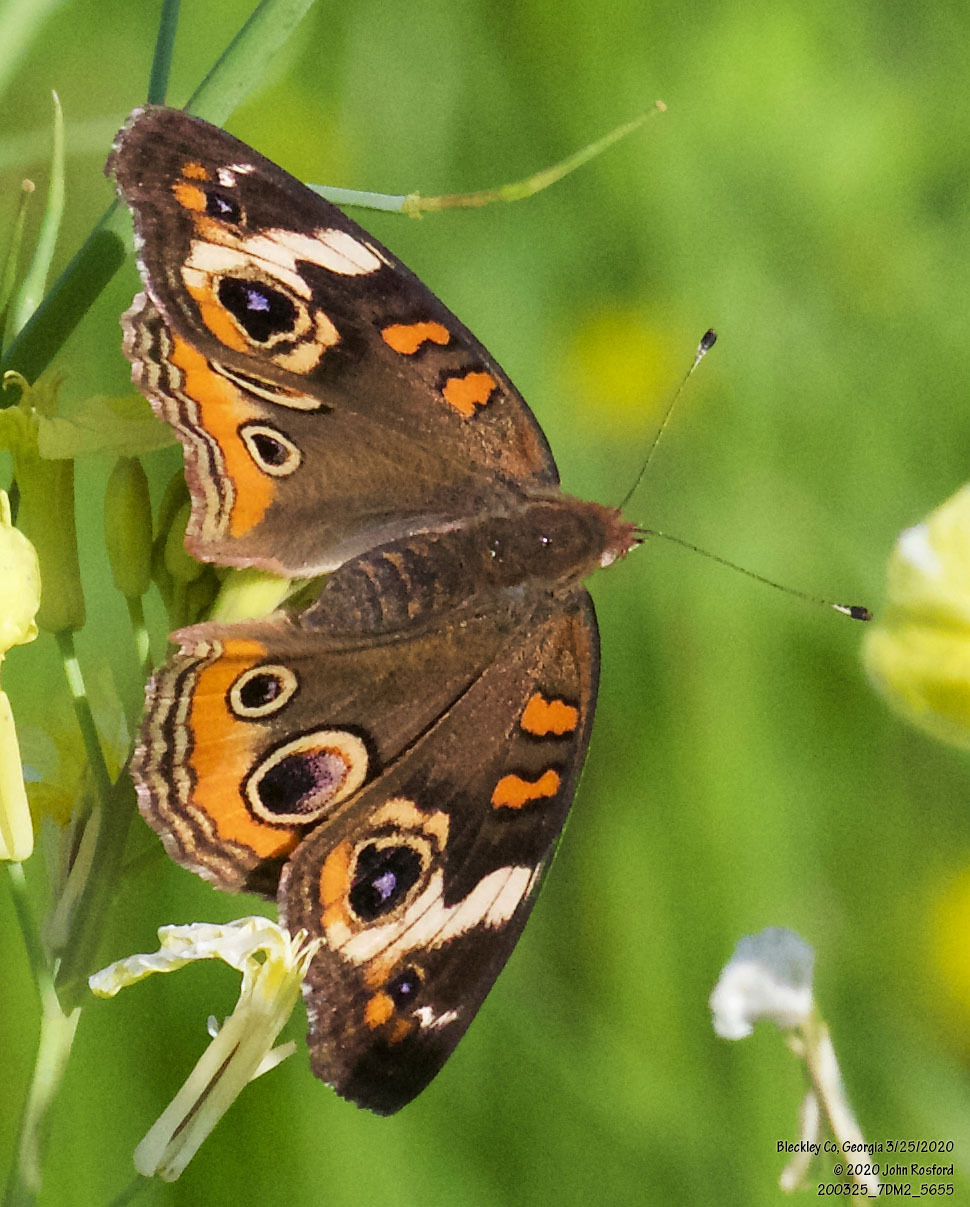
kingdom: Animalia
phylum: Arthropoda
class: Insecta
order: Lepidoptera
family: Nymphalidae
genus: Junonia
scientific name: Junonia coenia
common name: Common buckeye
